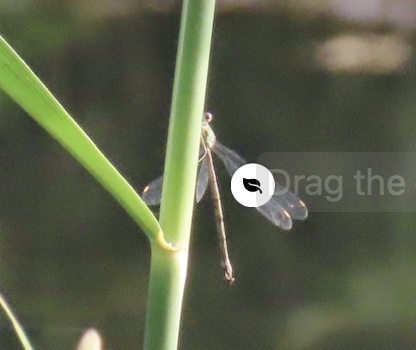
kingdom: Animalia
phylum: Arthropoda
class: Insecta
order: Odonata
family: Lestidae
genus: Chalcolestes
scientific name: Chalcolestes viridis
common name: Green emerald damselfly
